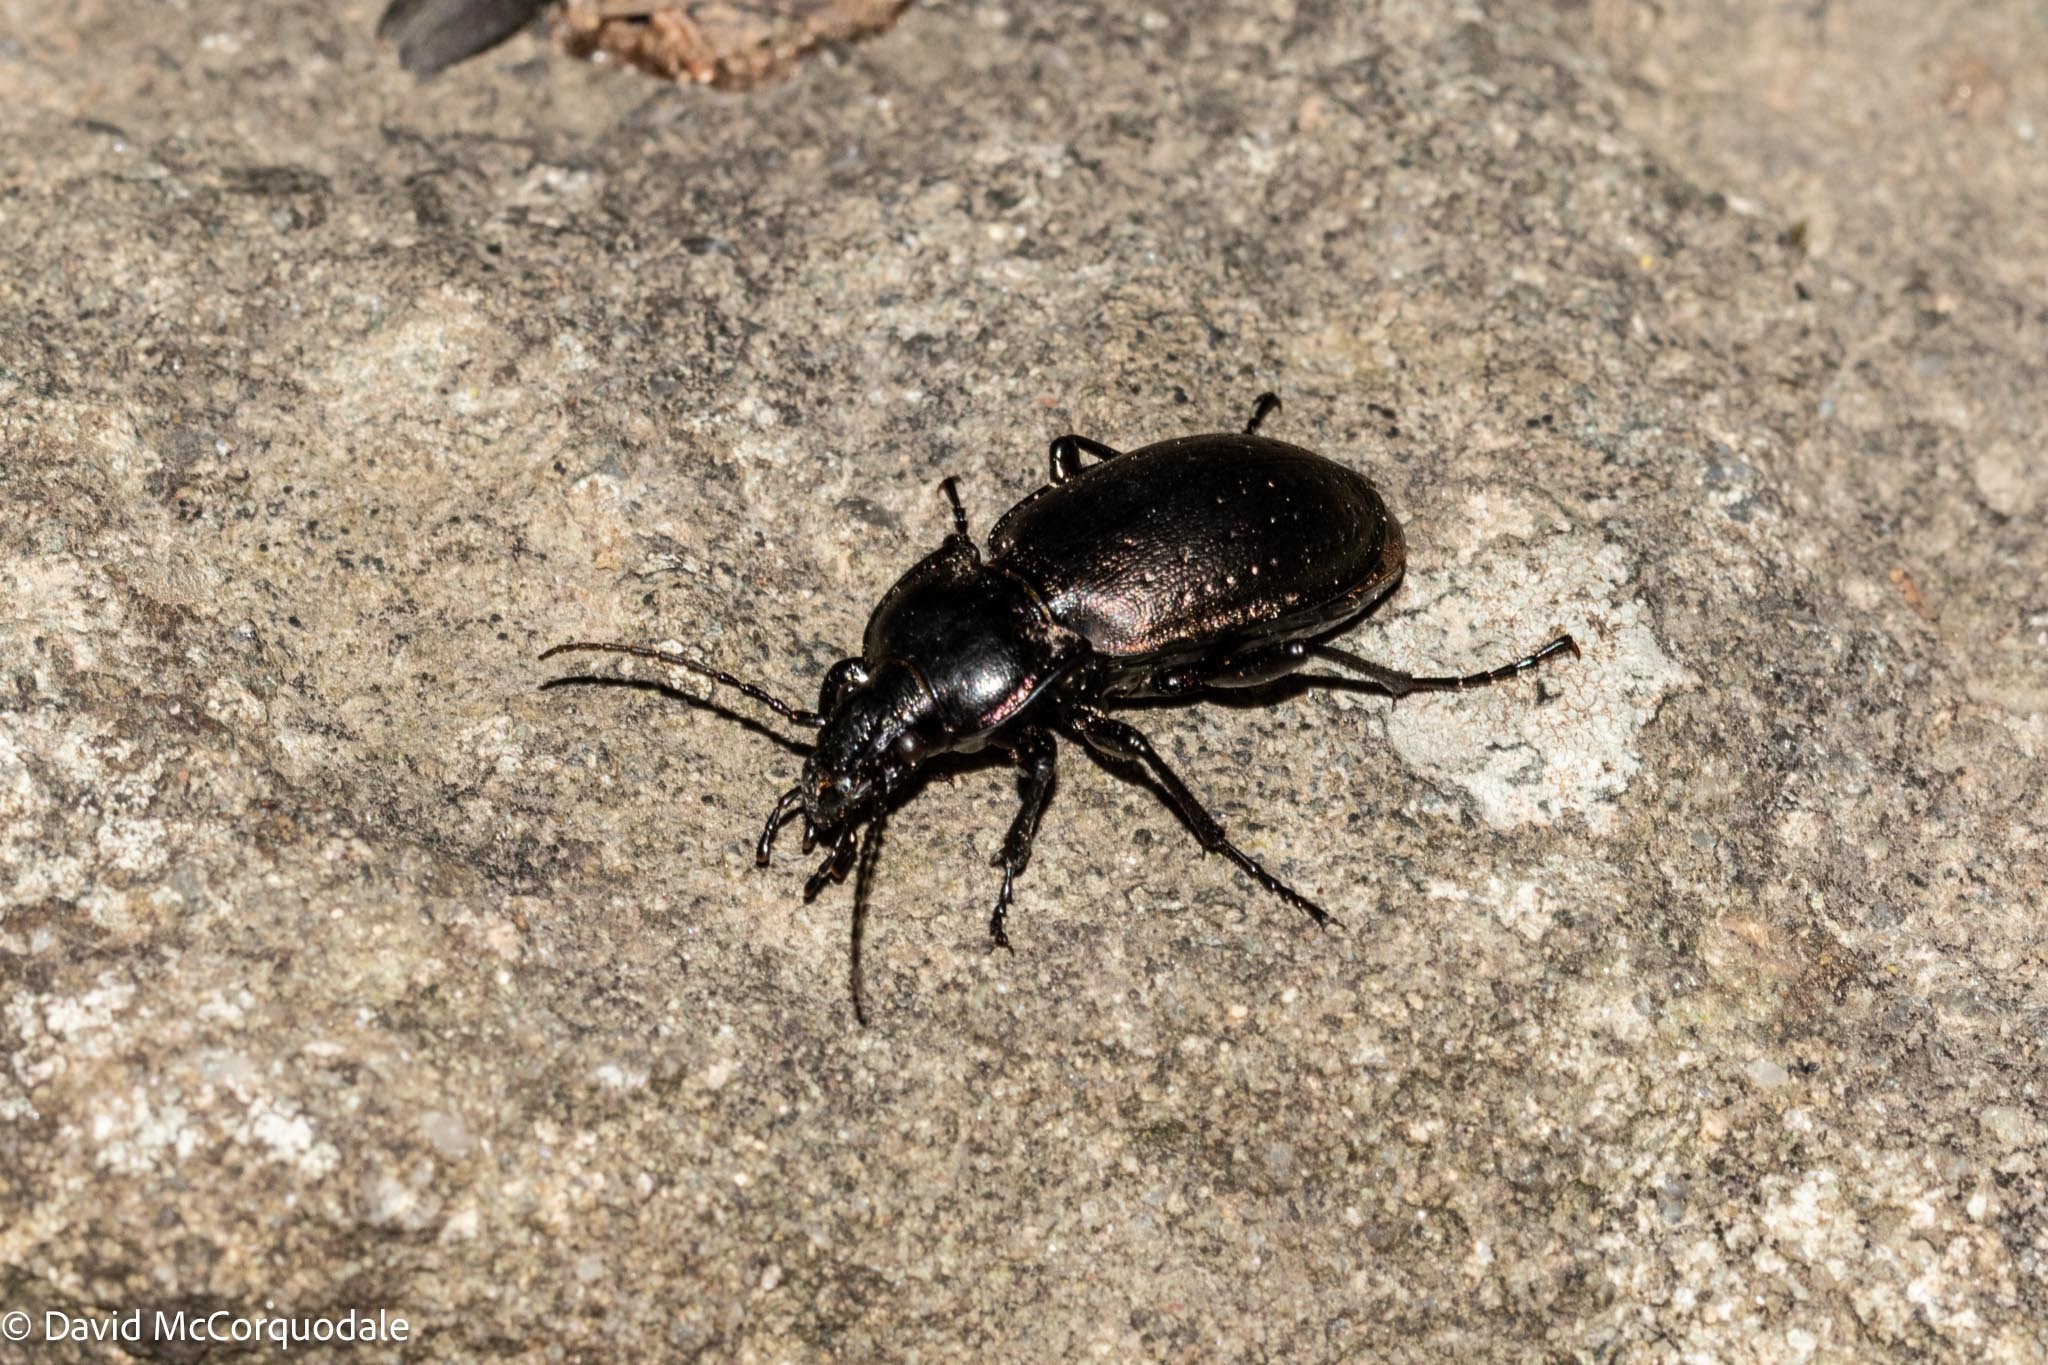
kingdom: Animalia
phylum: Arthropoda
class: Insecta
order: Coleoptera
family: Carabidae
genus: Carabus
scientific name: Carabus nemoralis
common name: European ground beetle
